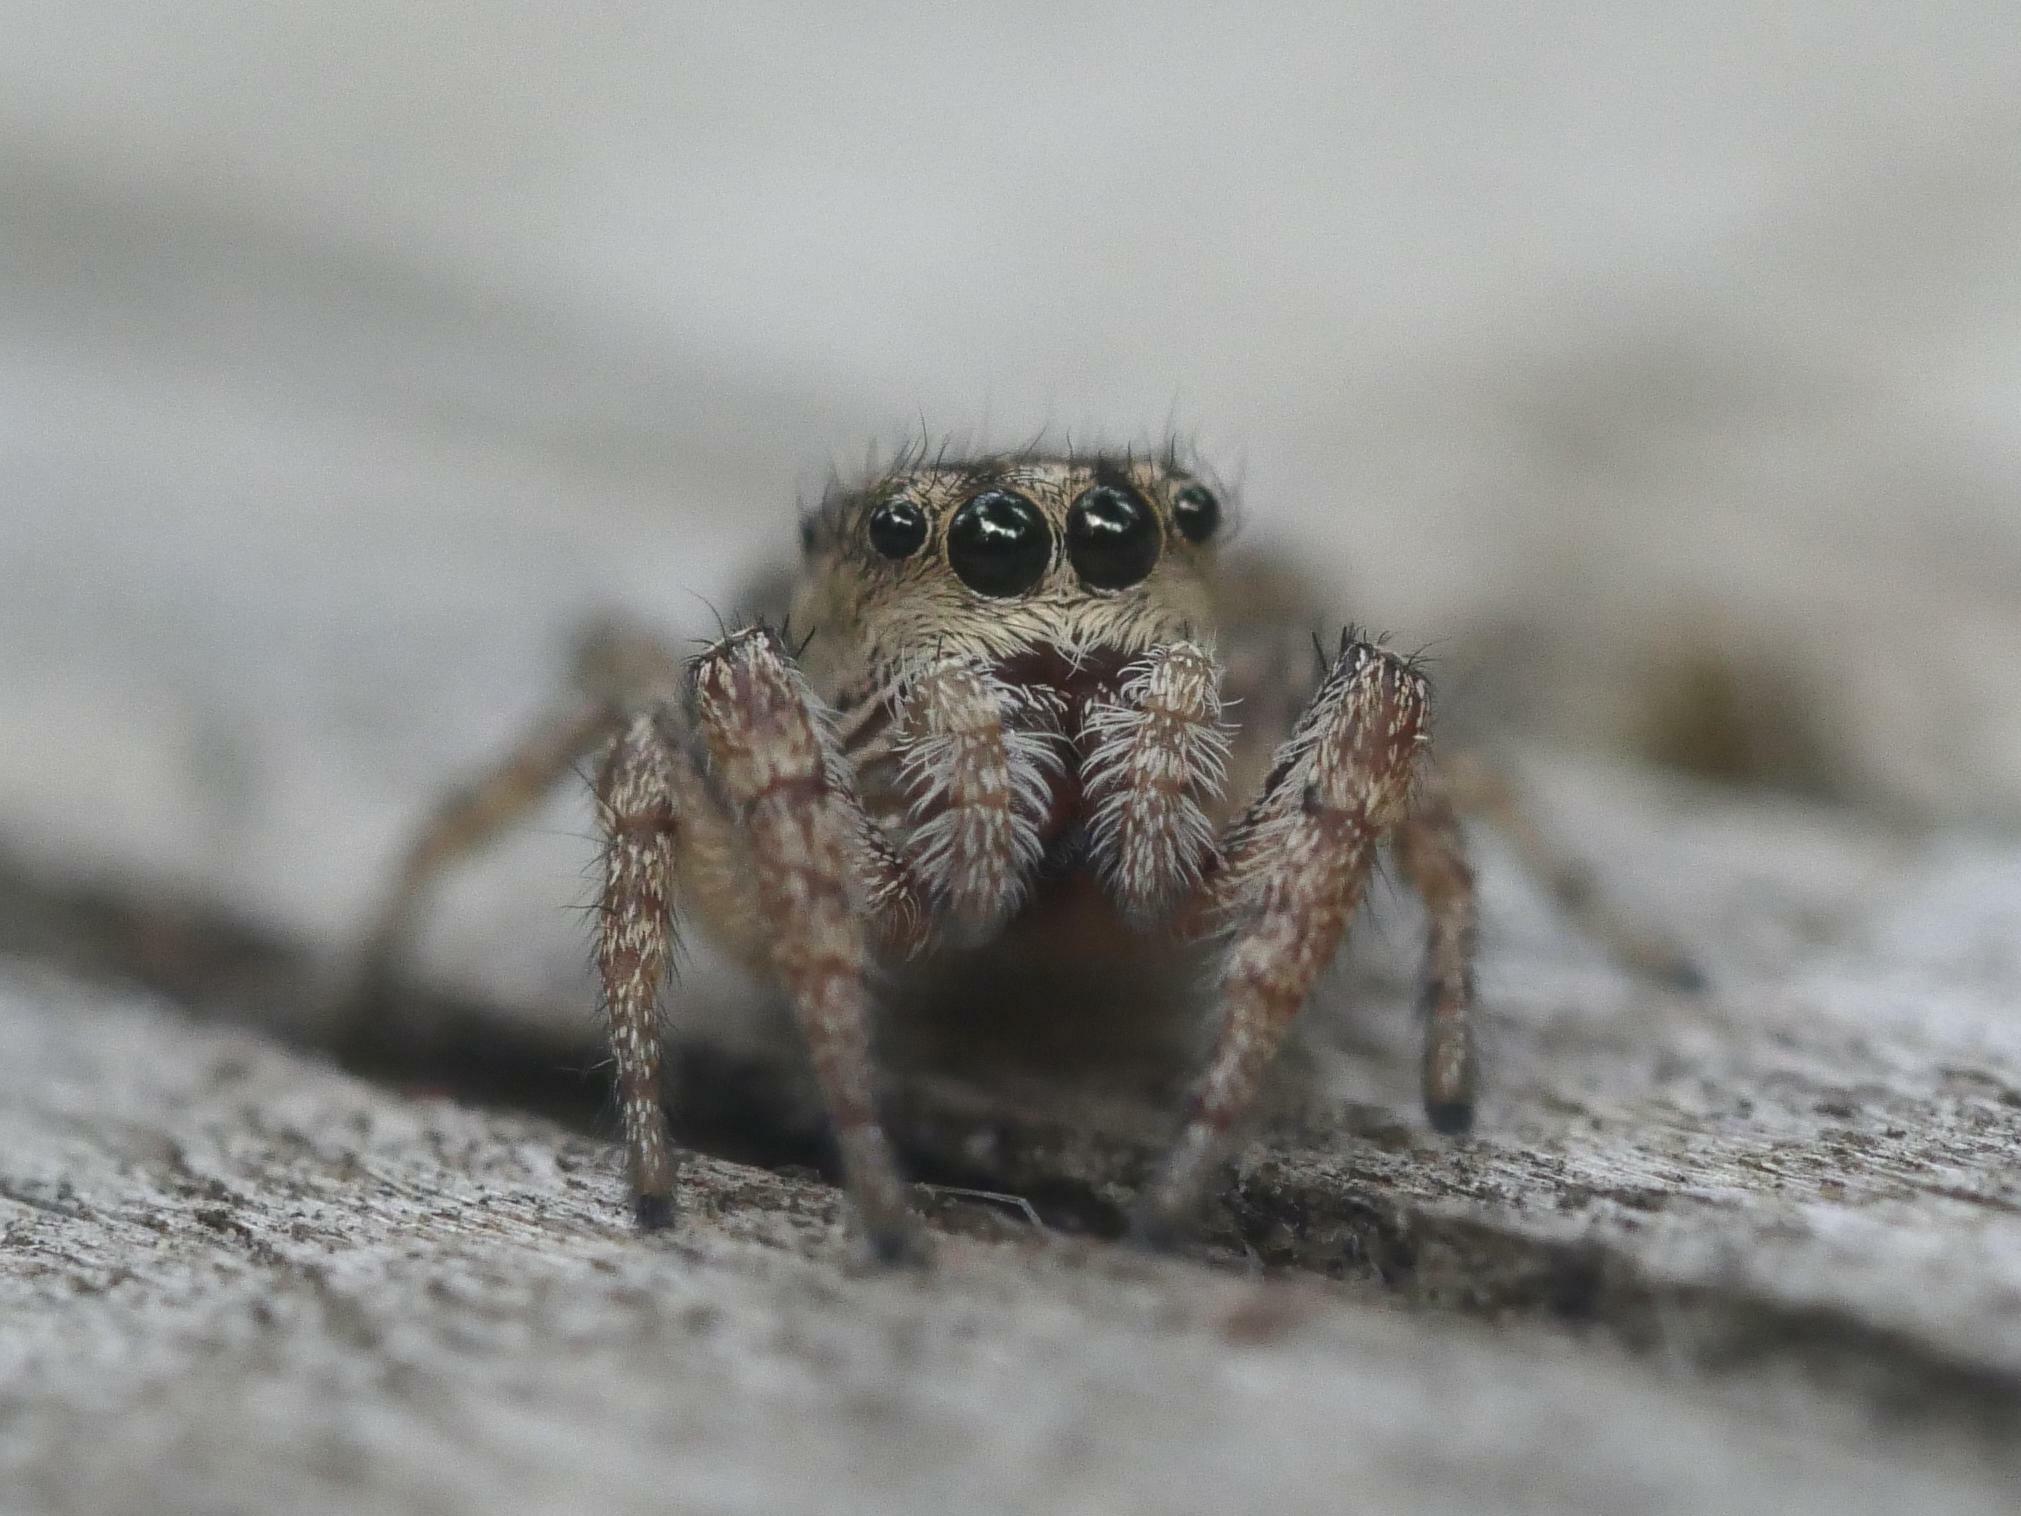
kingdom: Animalia
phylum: Arthropoda
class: Arachnida
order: Araneae
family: Salticidae
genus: Pelegrina
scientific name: Pelegrina flavipes
